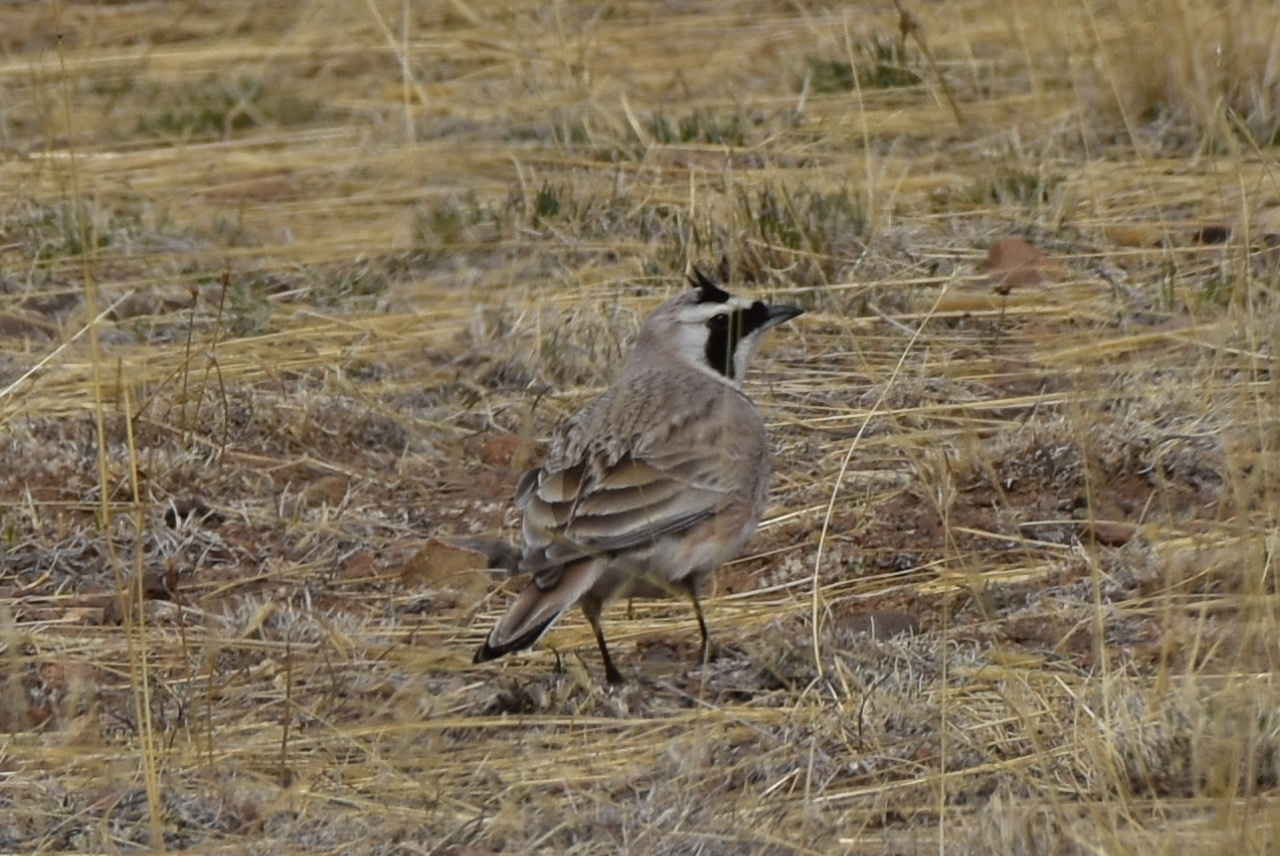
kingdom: Animalia
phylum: Chordata
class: Aves
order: Passeriformes
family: Alaudidae
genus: Eremophila
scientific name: Eremophila alpestris
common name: Horned lark
